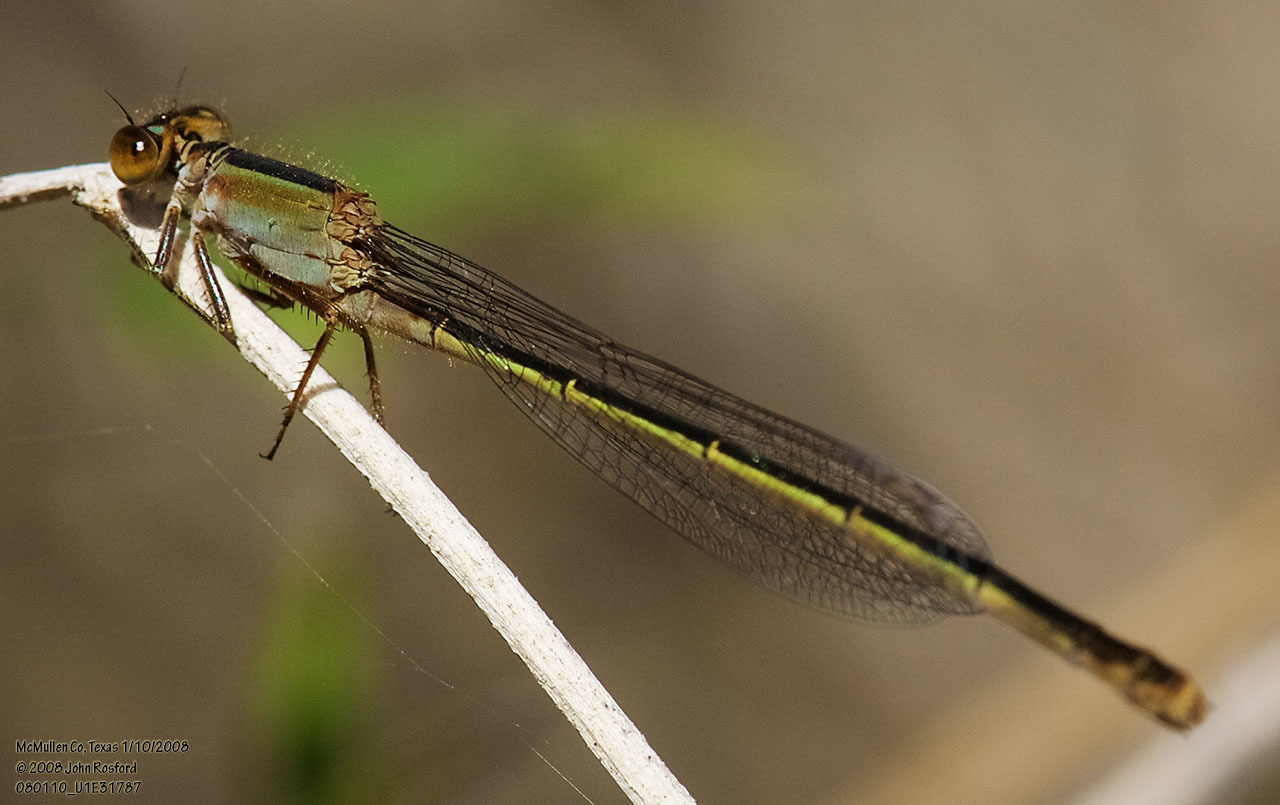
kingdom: Animalia
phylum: Arthropoda
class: Insecta
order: Odonata
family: Coenagrionidae
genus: Ischnura
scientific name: Ischnura ramburii
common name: Rambur's forktail
